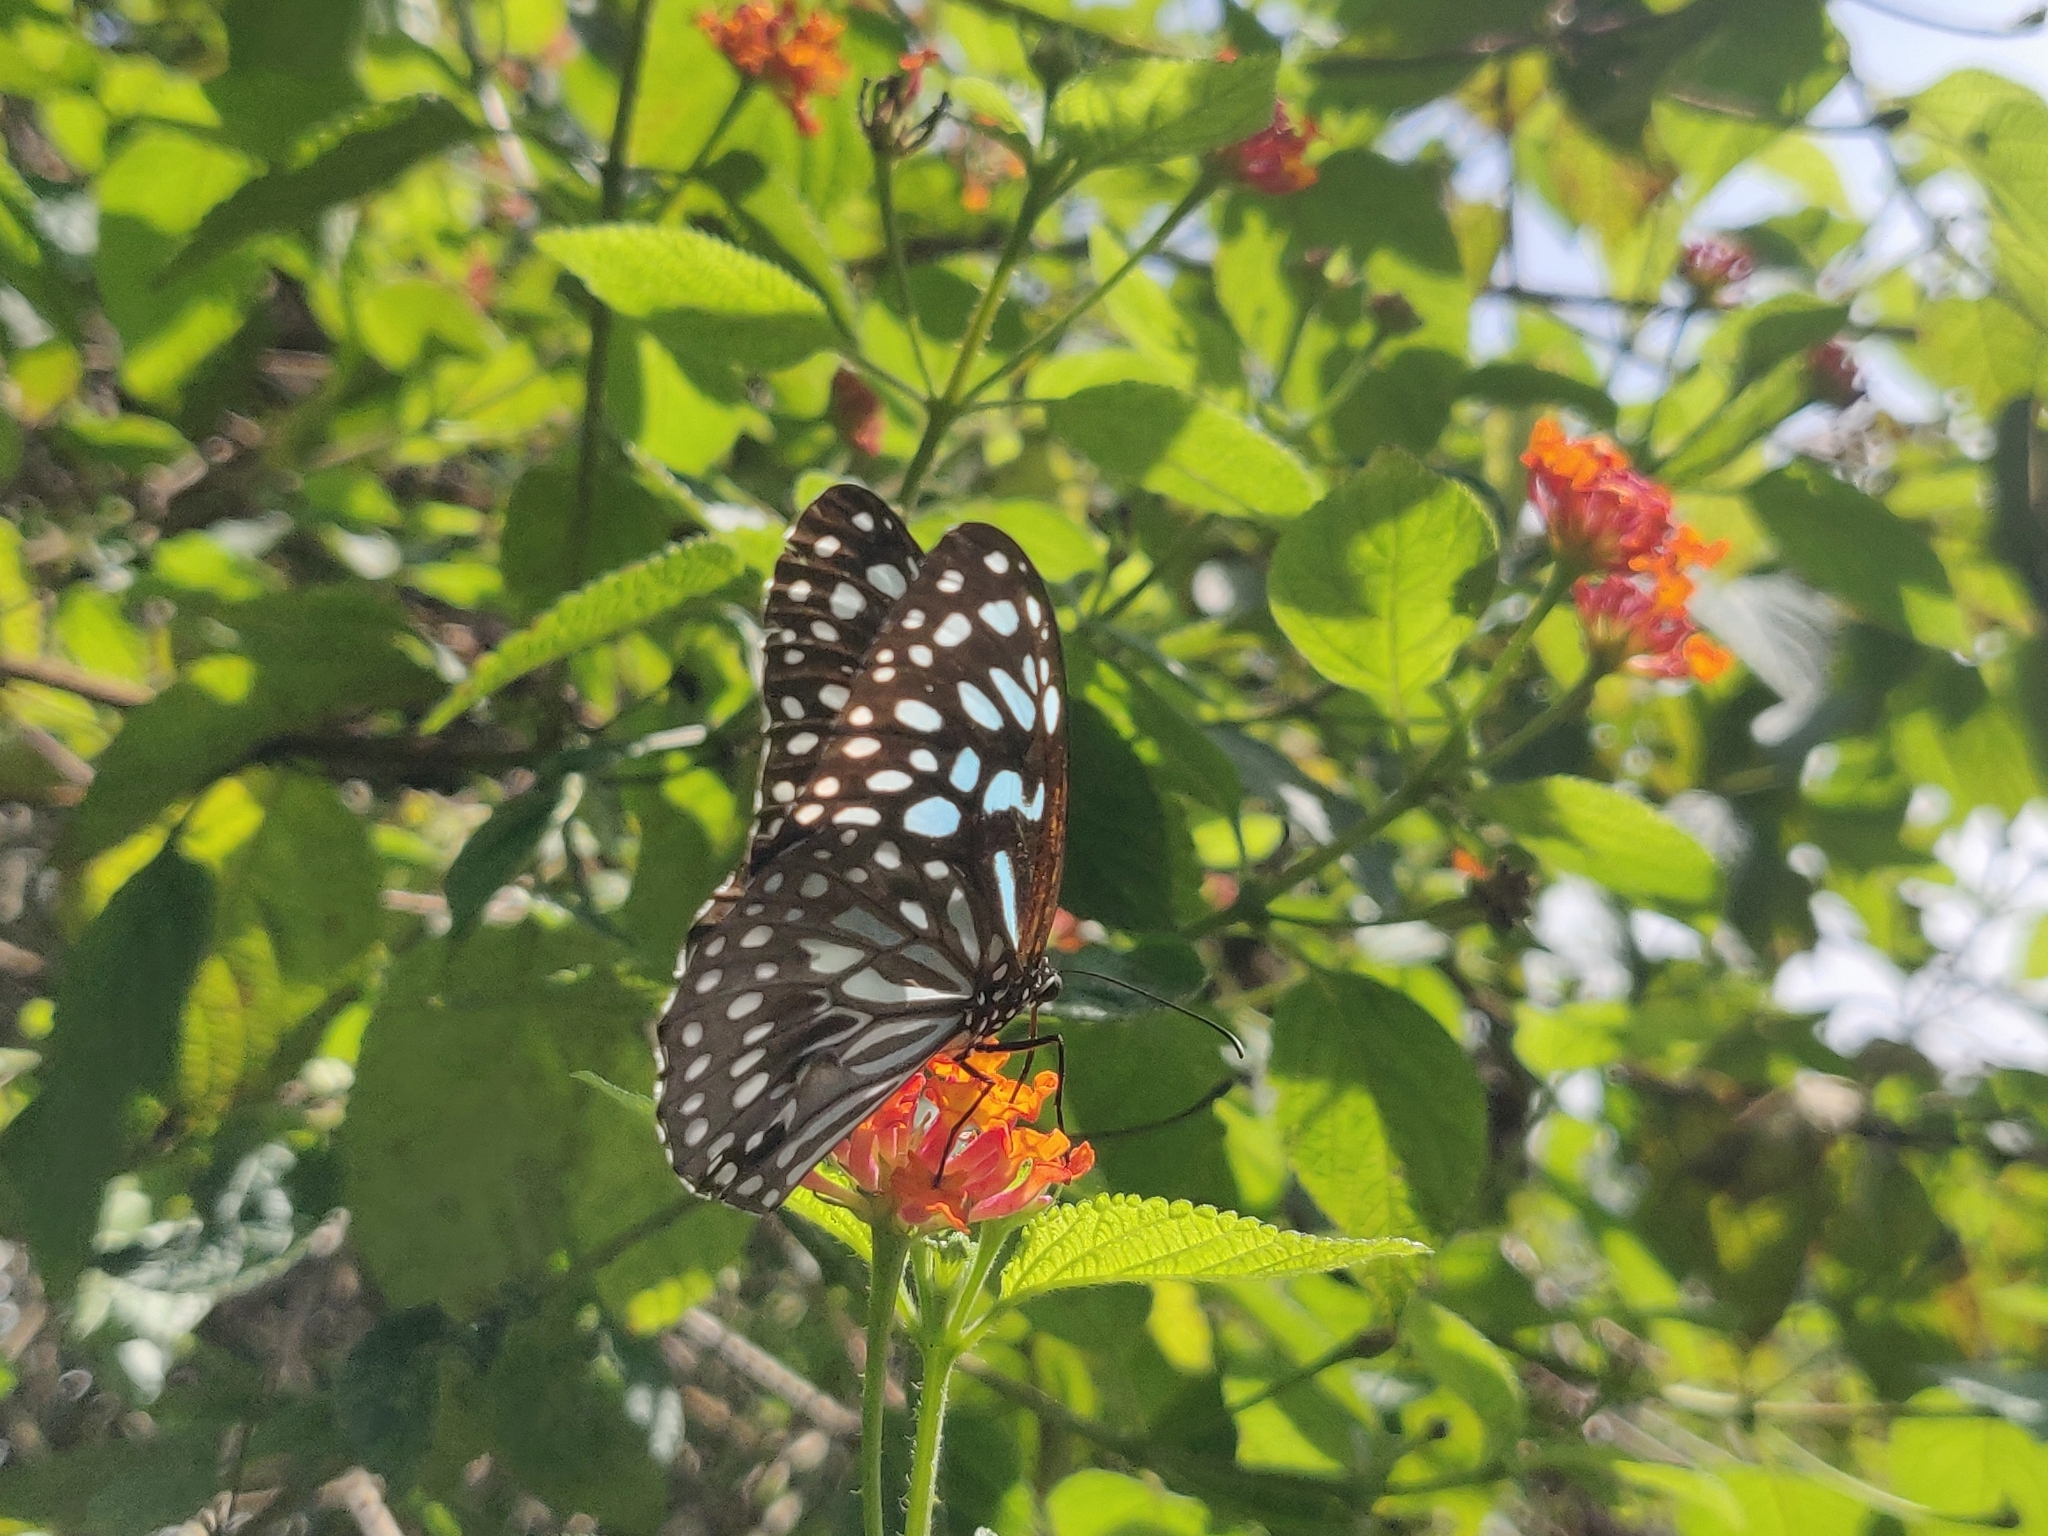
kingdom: Animalia
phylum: Arthropoda
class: Insecta
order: Lepidoptera
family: Nymphalidae
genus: Tirumala
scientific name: Tirumala septentrionis
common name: Dark blue tiger butterfly
